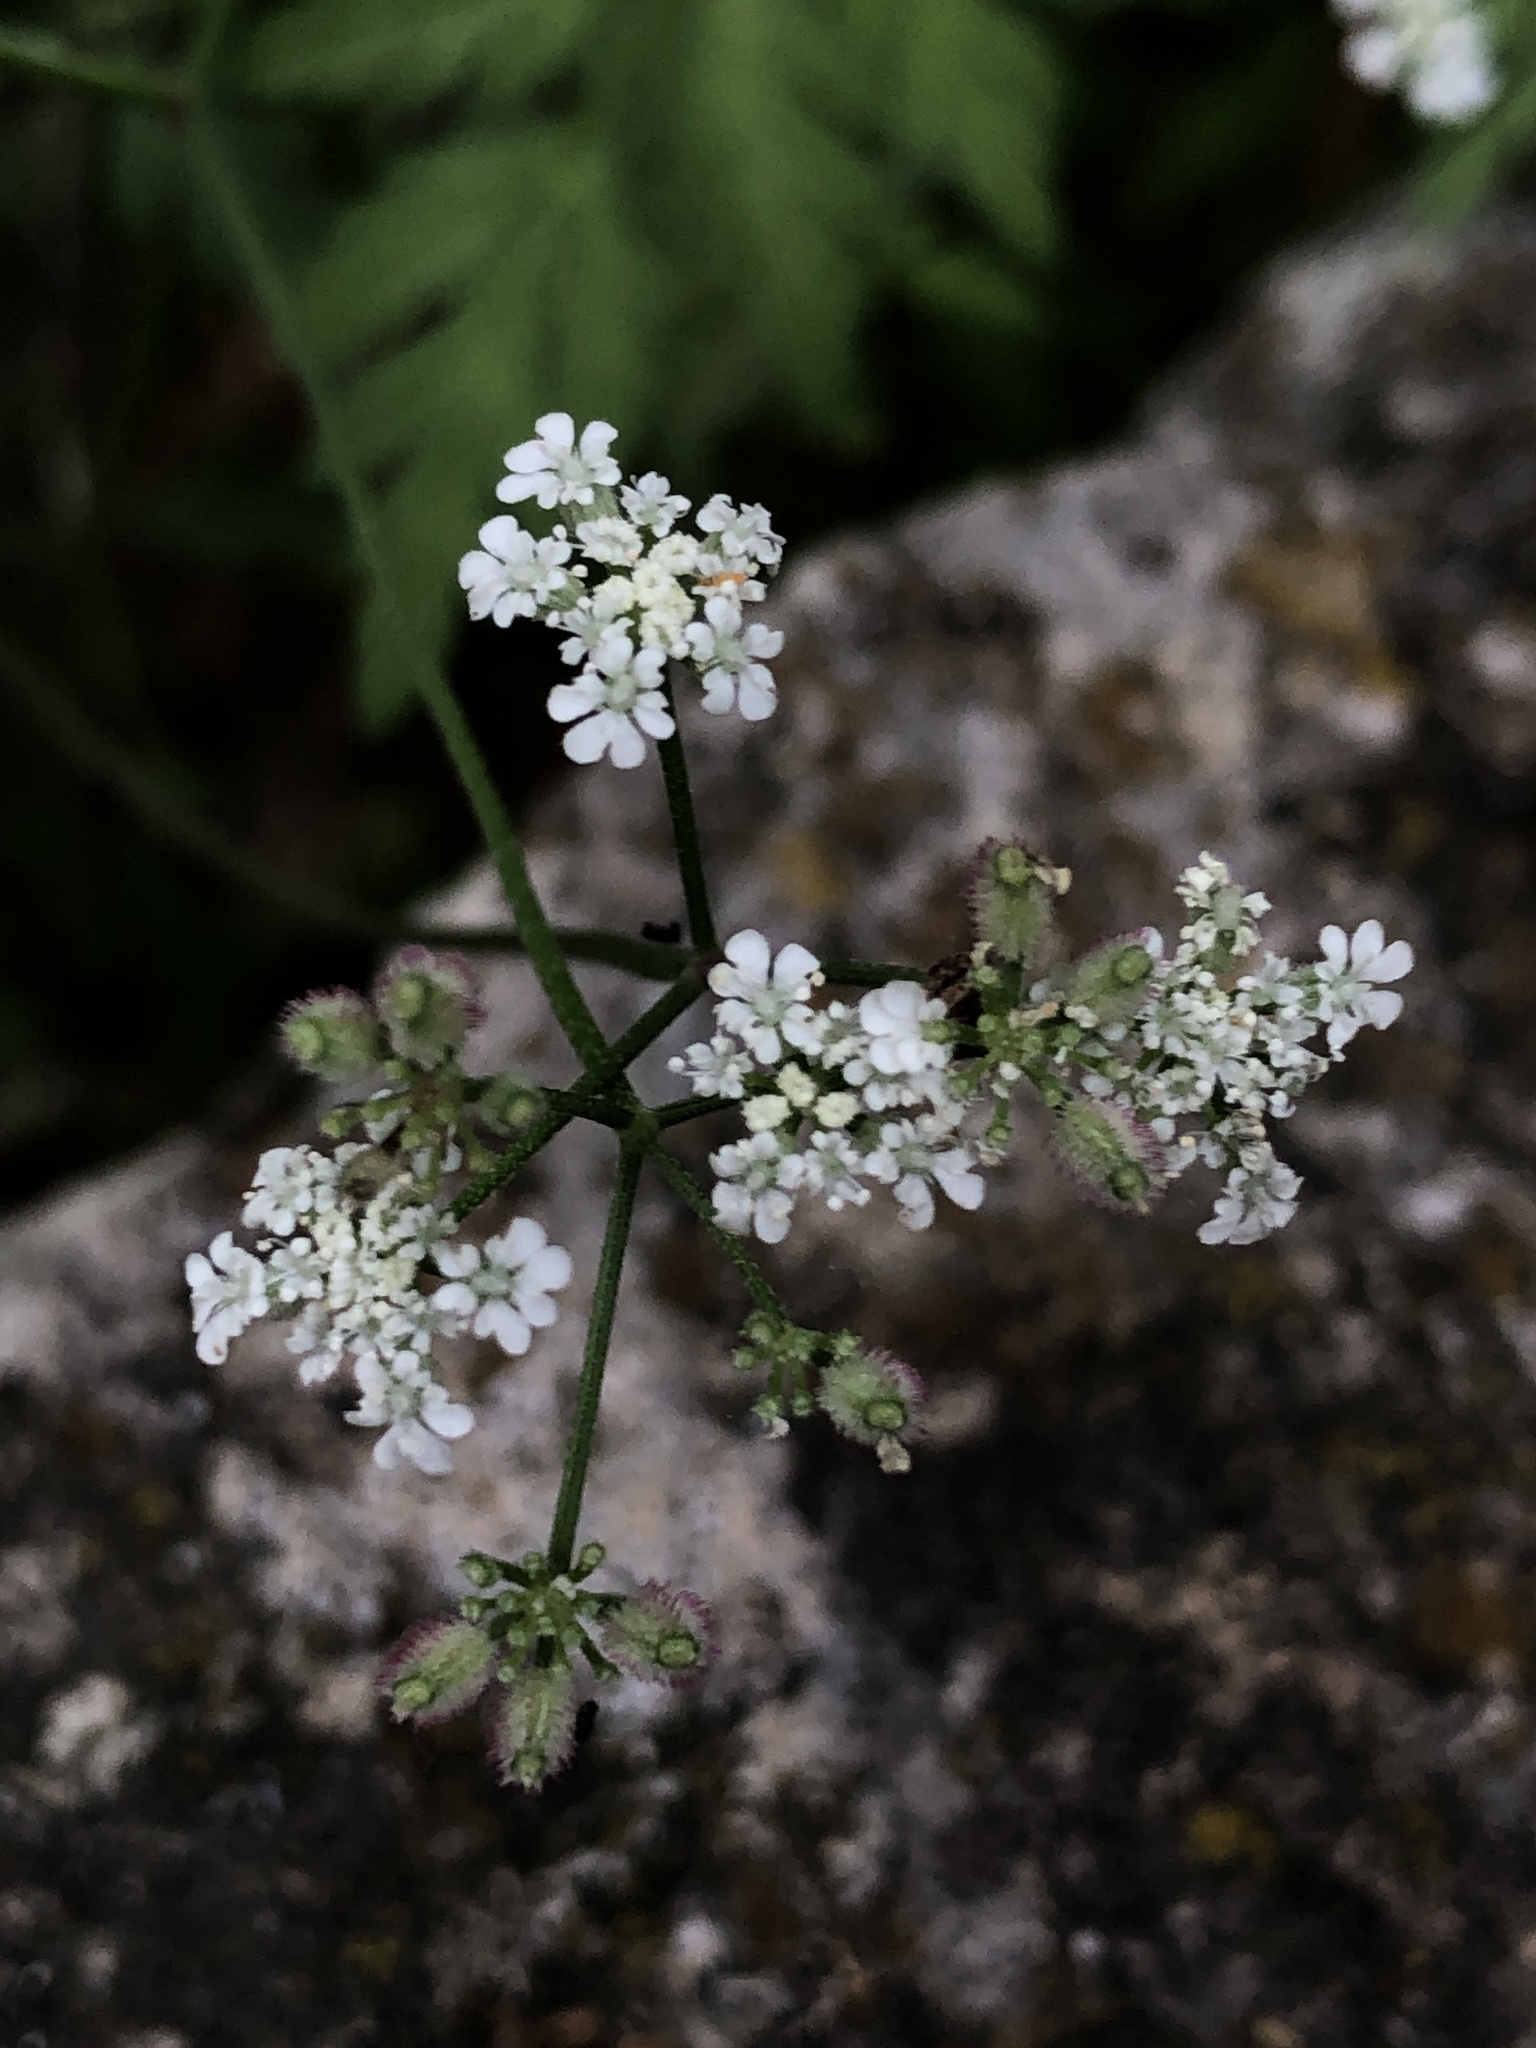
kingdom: Plantae
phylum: Tracheophyta
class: Magnoliopsida
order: Apiales
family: Apiaceae
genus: Torilis
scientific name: Torilis arvensis
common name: Spreading hedge-parsley
